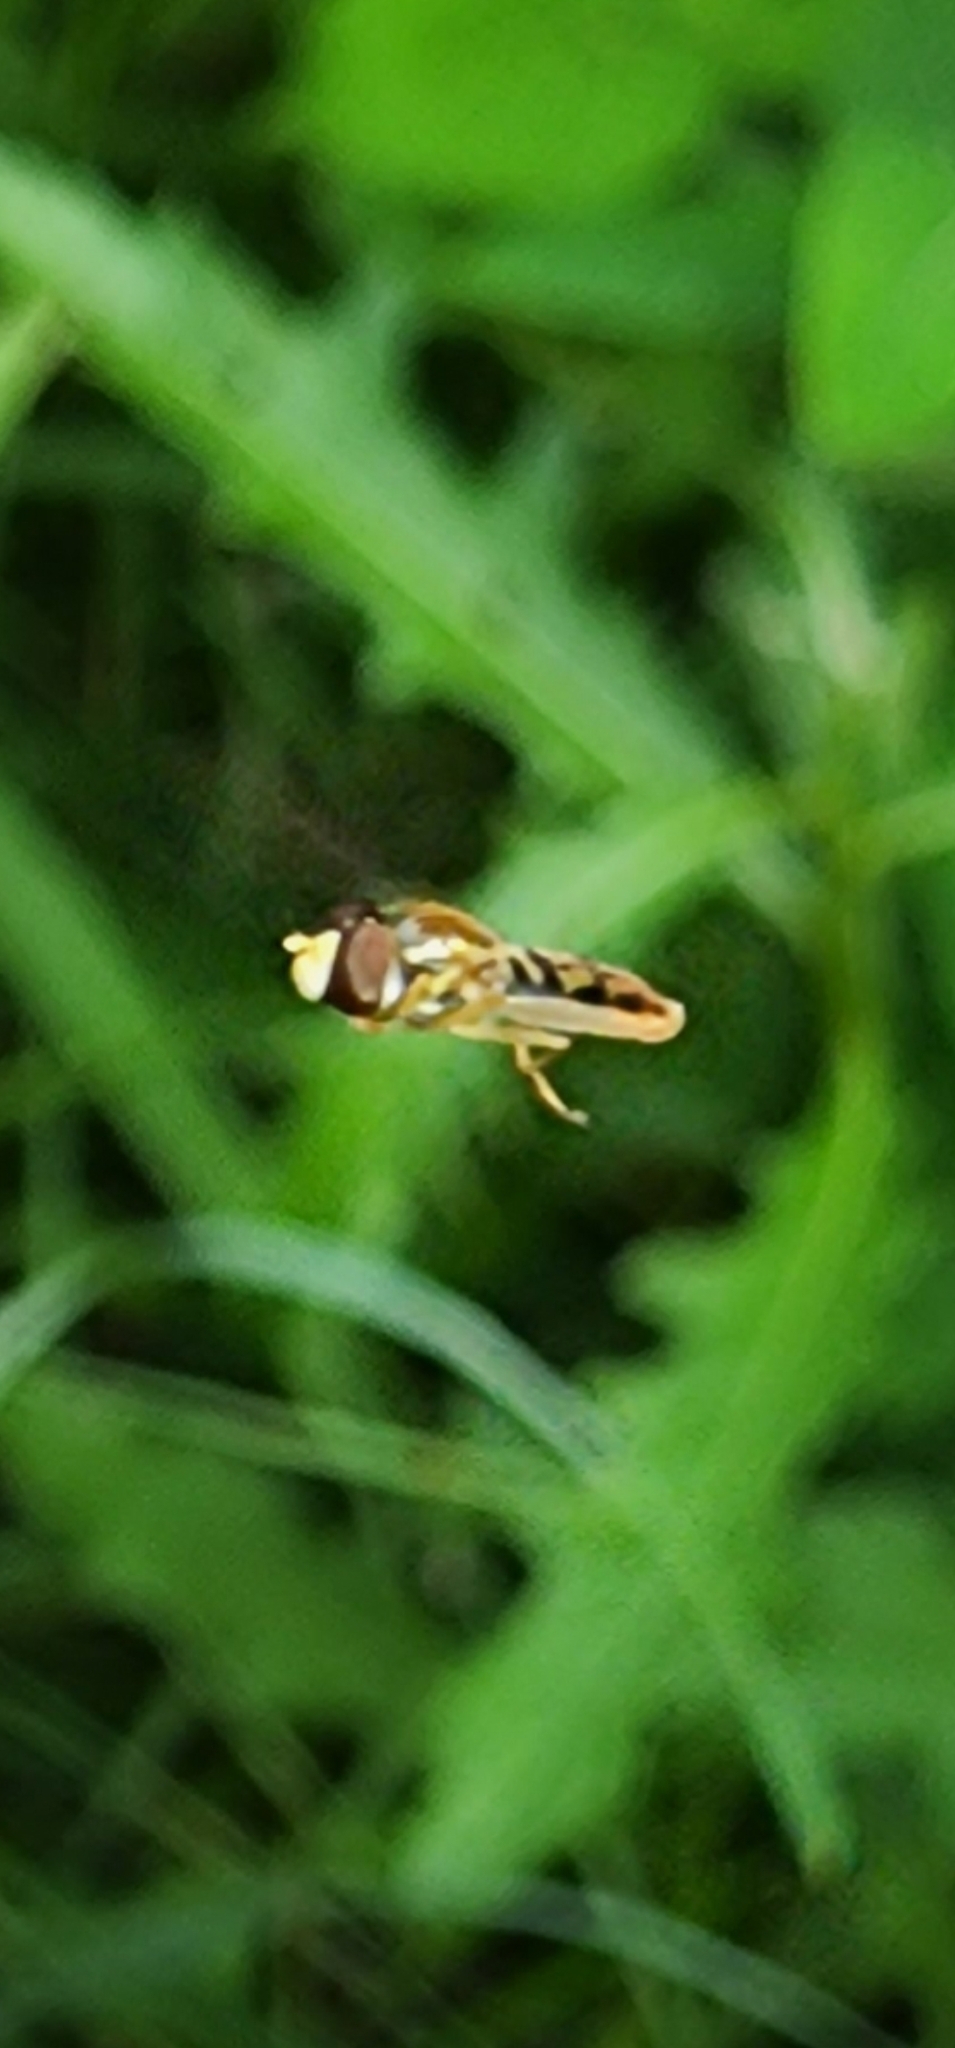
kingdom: Animalia
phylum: Arthropoda
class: Insecta
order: Diptera
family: Syrphidae
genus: Toxomerus
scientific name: Toxomerus marginatus
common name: Syrphid fly
